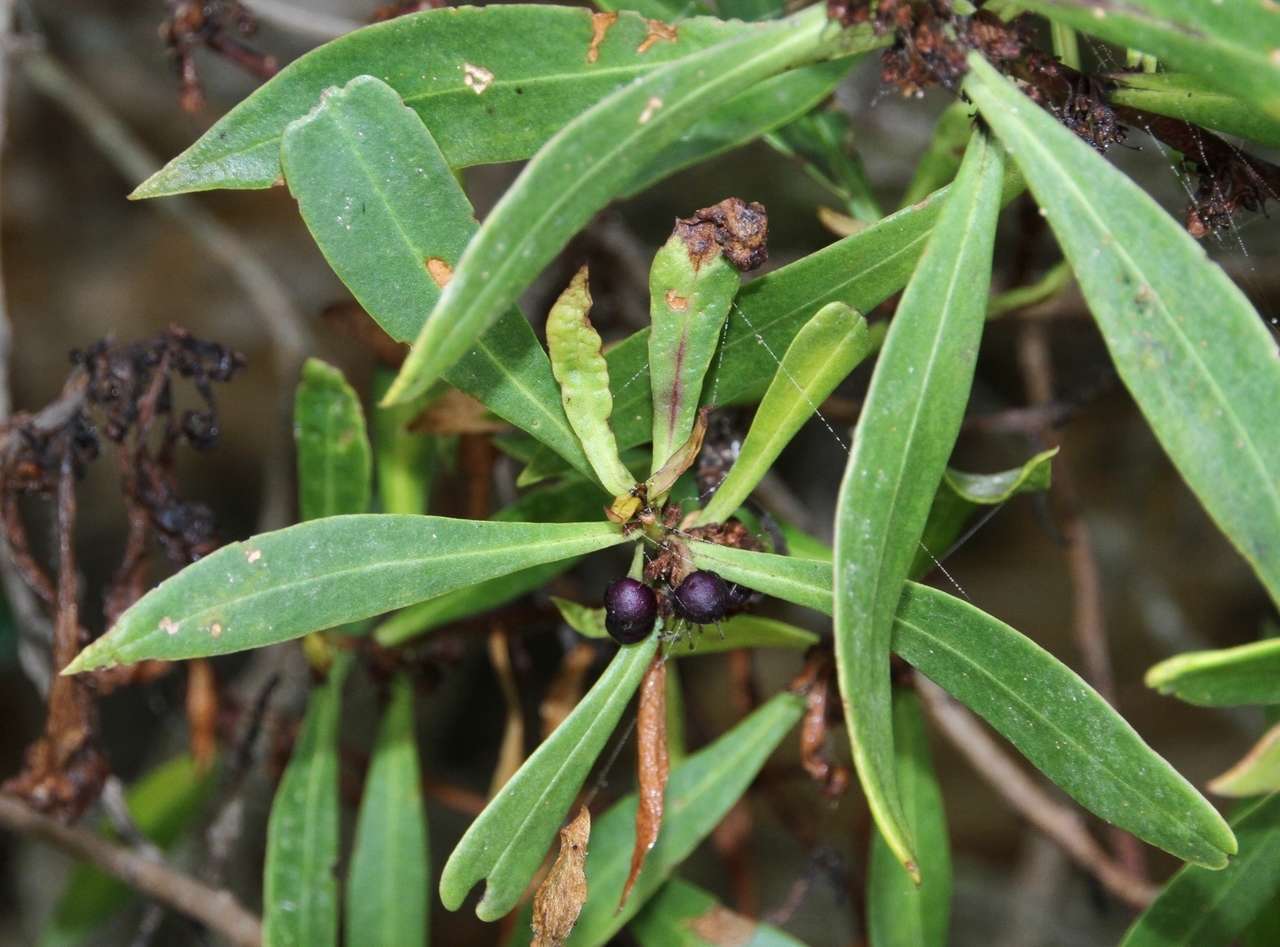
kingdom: Plantae
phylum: Tracheophyta
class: Magnoliopsida
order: Lamiales
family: Scrophulariaceae
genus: Myoporum
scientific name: Myoporum insulare
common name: Common boobialla
